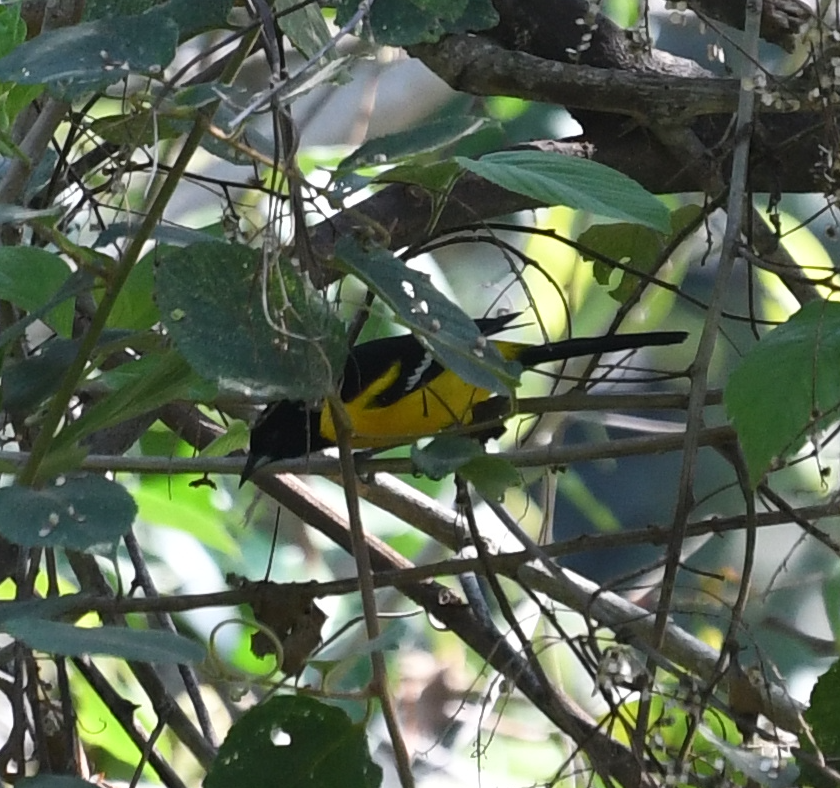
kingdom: Animalia
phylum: Chordata
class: Aves
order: Passeriformes
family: Icteridae
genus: Icterus
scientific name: Icterus maculialatus
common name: Bar-winged oriole
